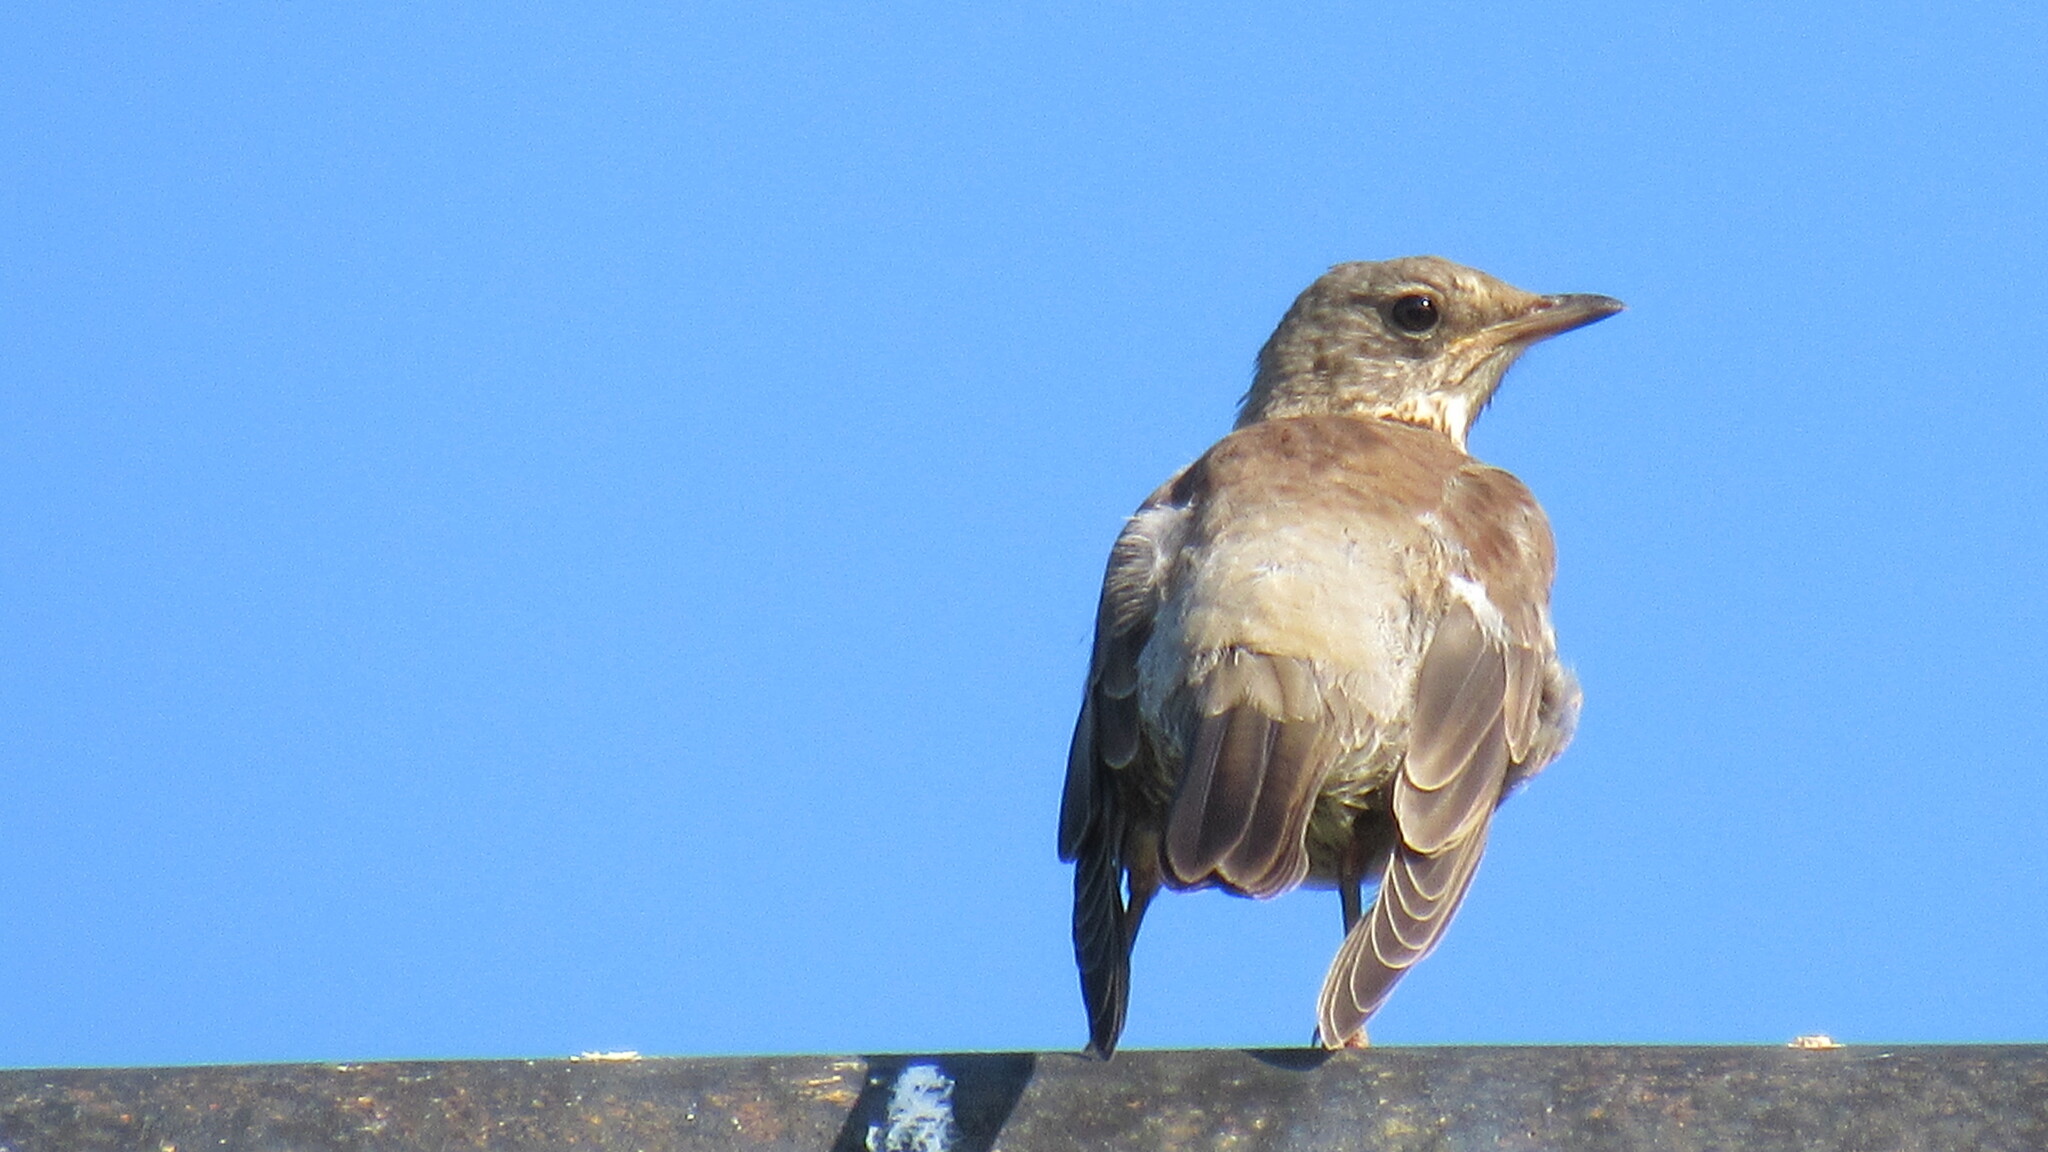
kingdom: Animalia
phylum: Chordata
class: Aves
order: Passeriformes
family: Turdidae
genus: Turdus
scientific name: Turdus pilaris
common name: Fieldfare
